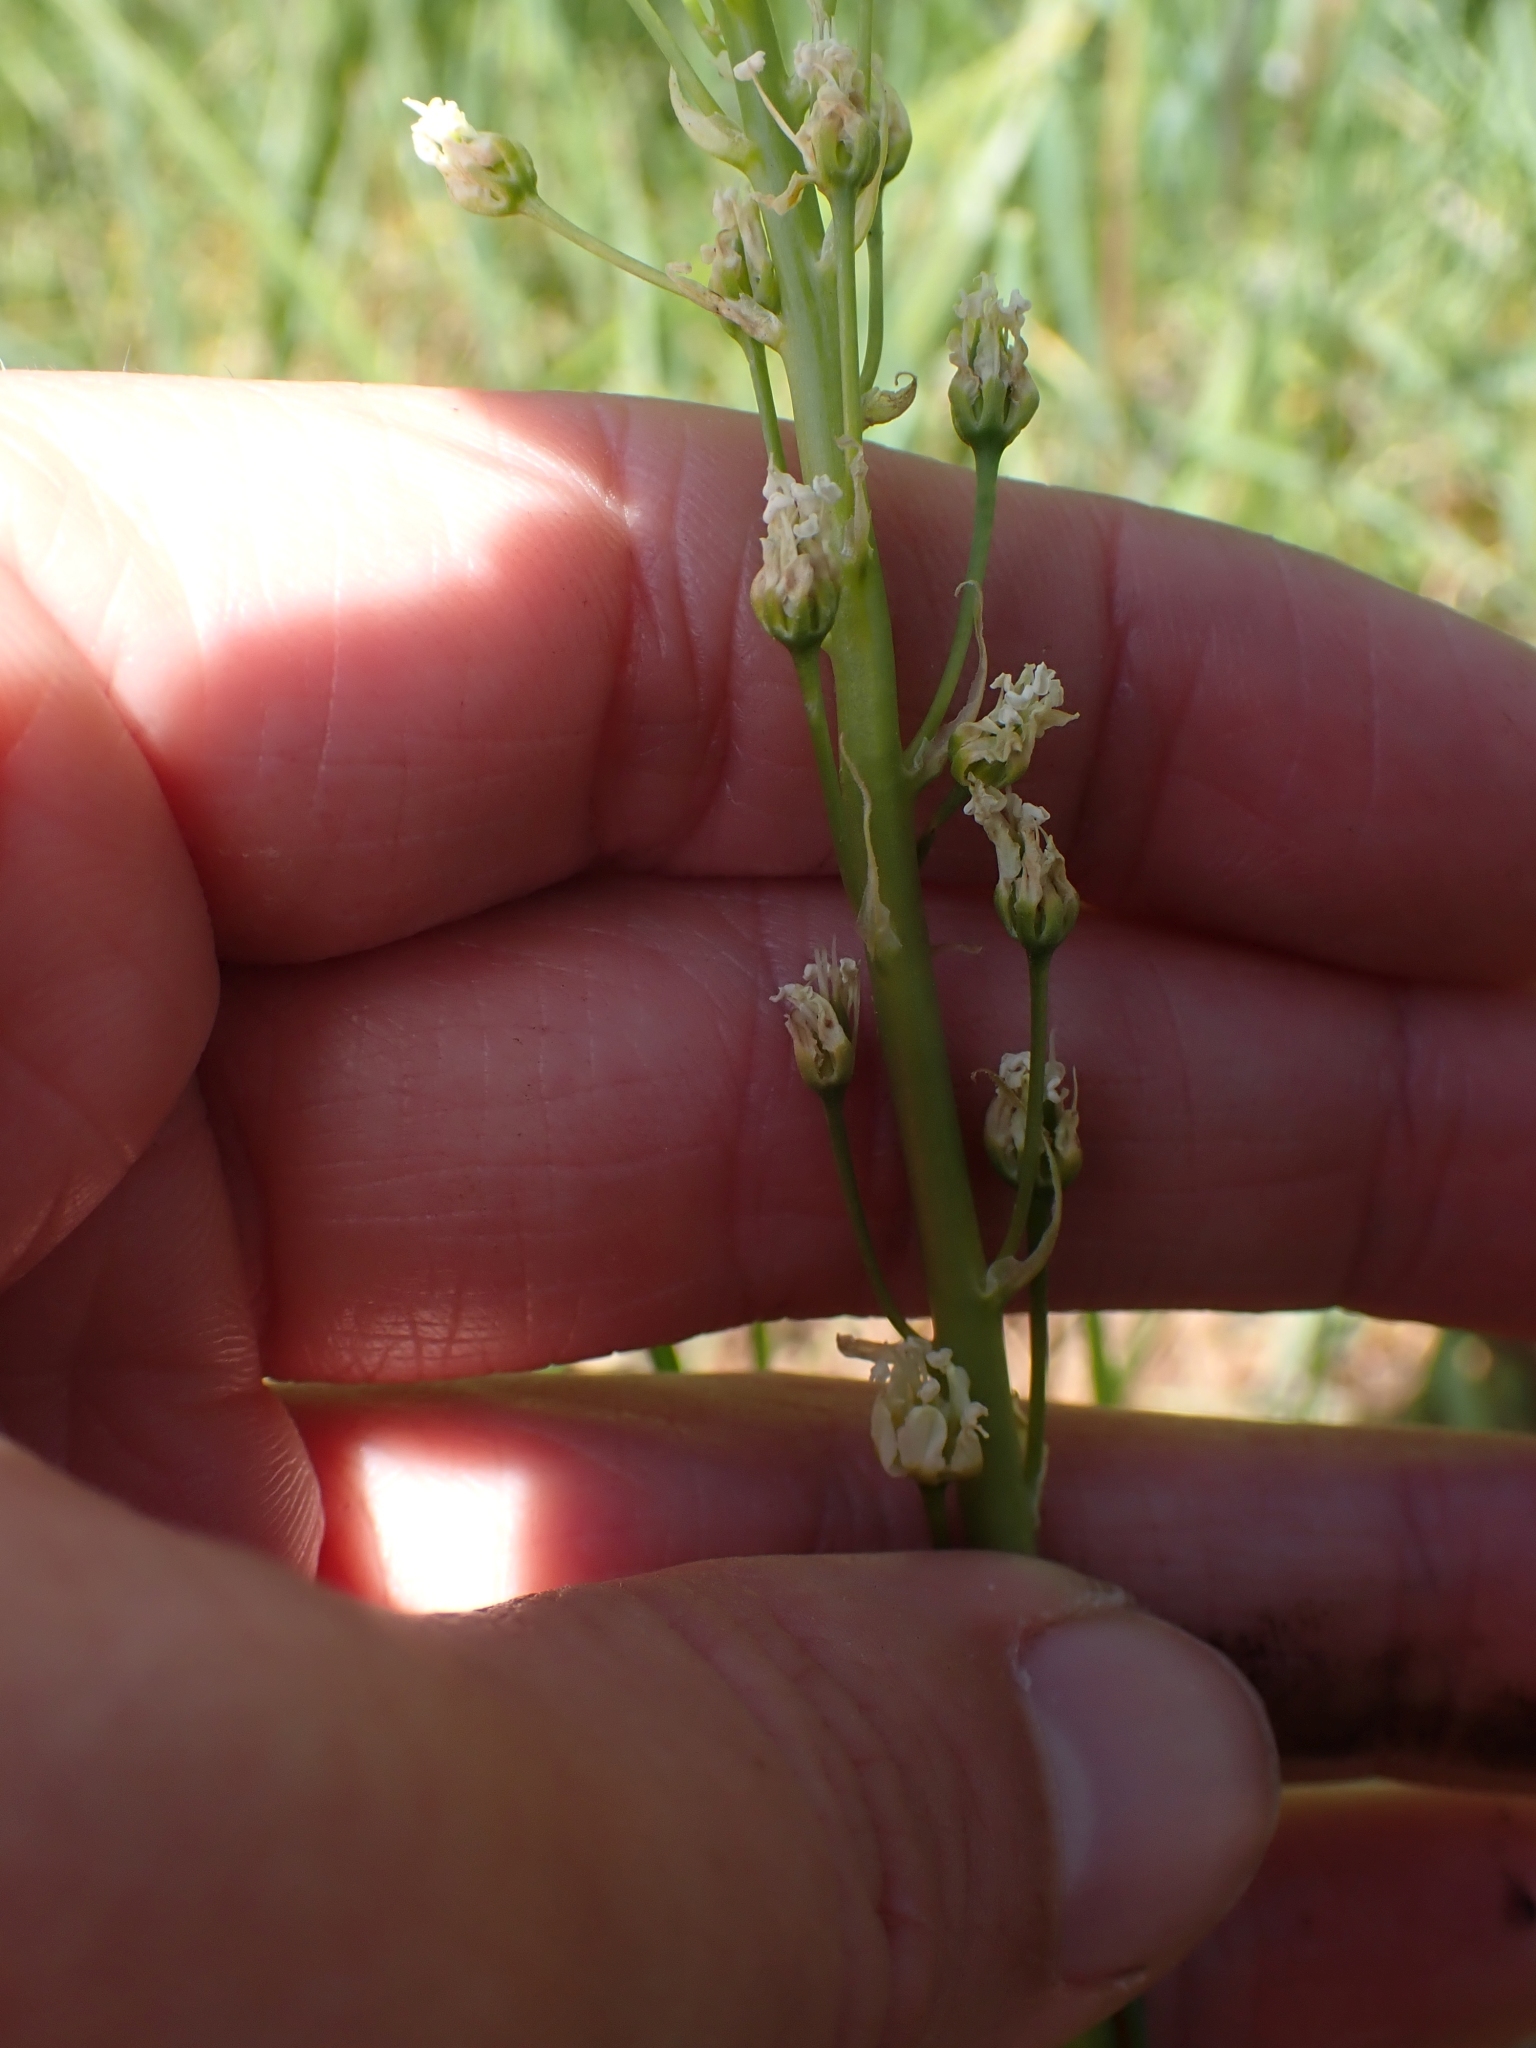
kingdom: Plantae
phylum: Tracheophyta
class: Liliopsida
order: Liliales
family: Melanthiaceae
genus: Toxicoscordion
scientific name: Toxicoscordion venenosum
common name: Meadow death camas
